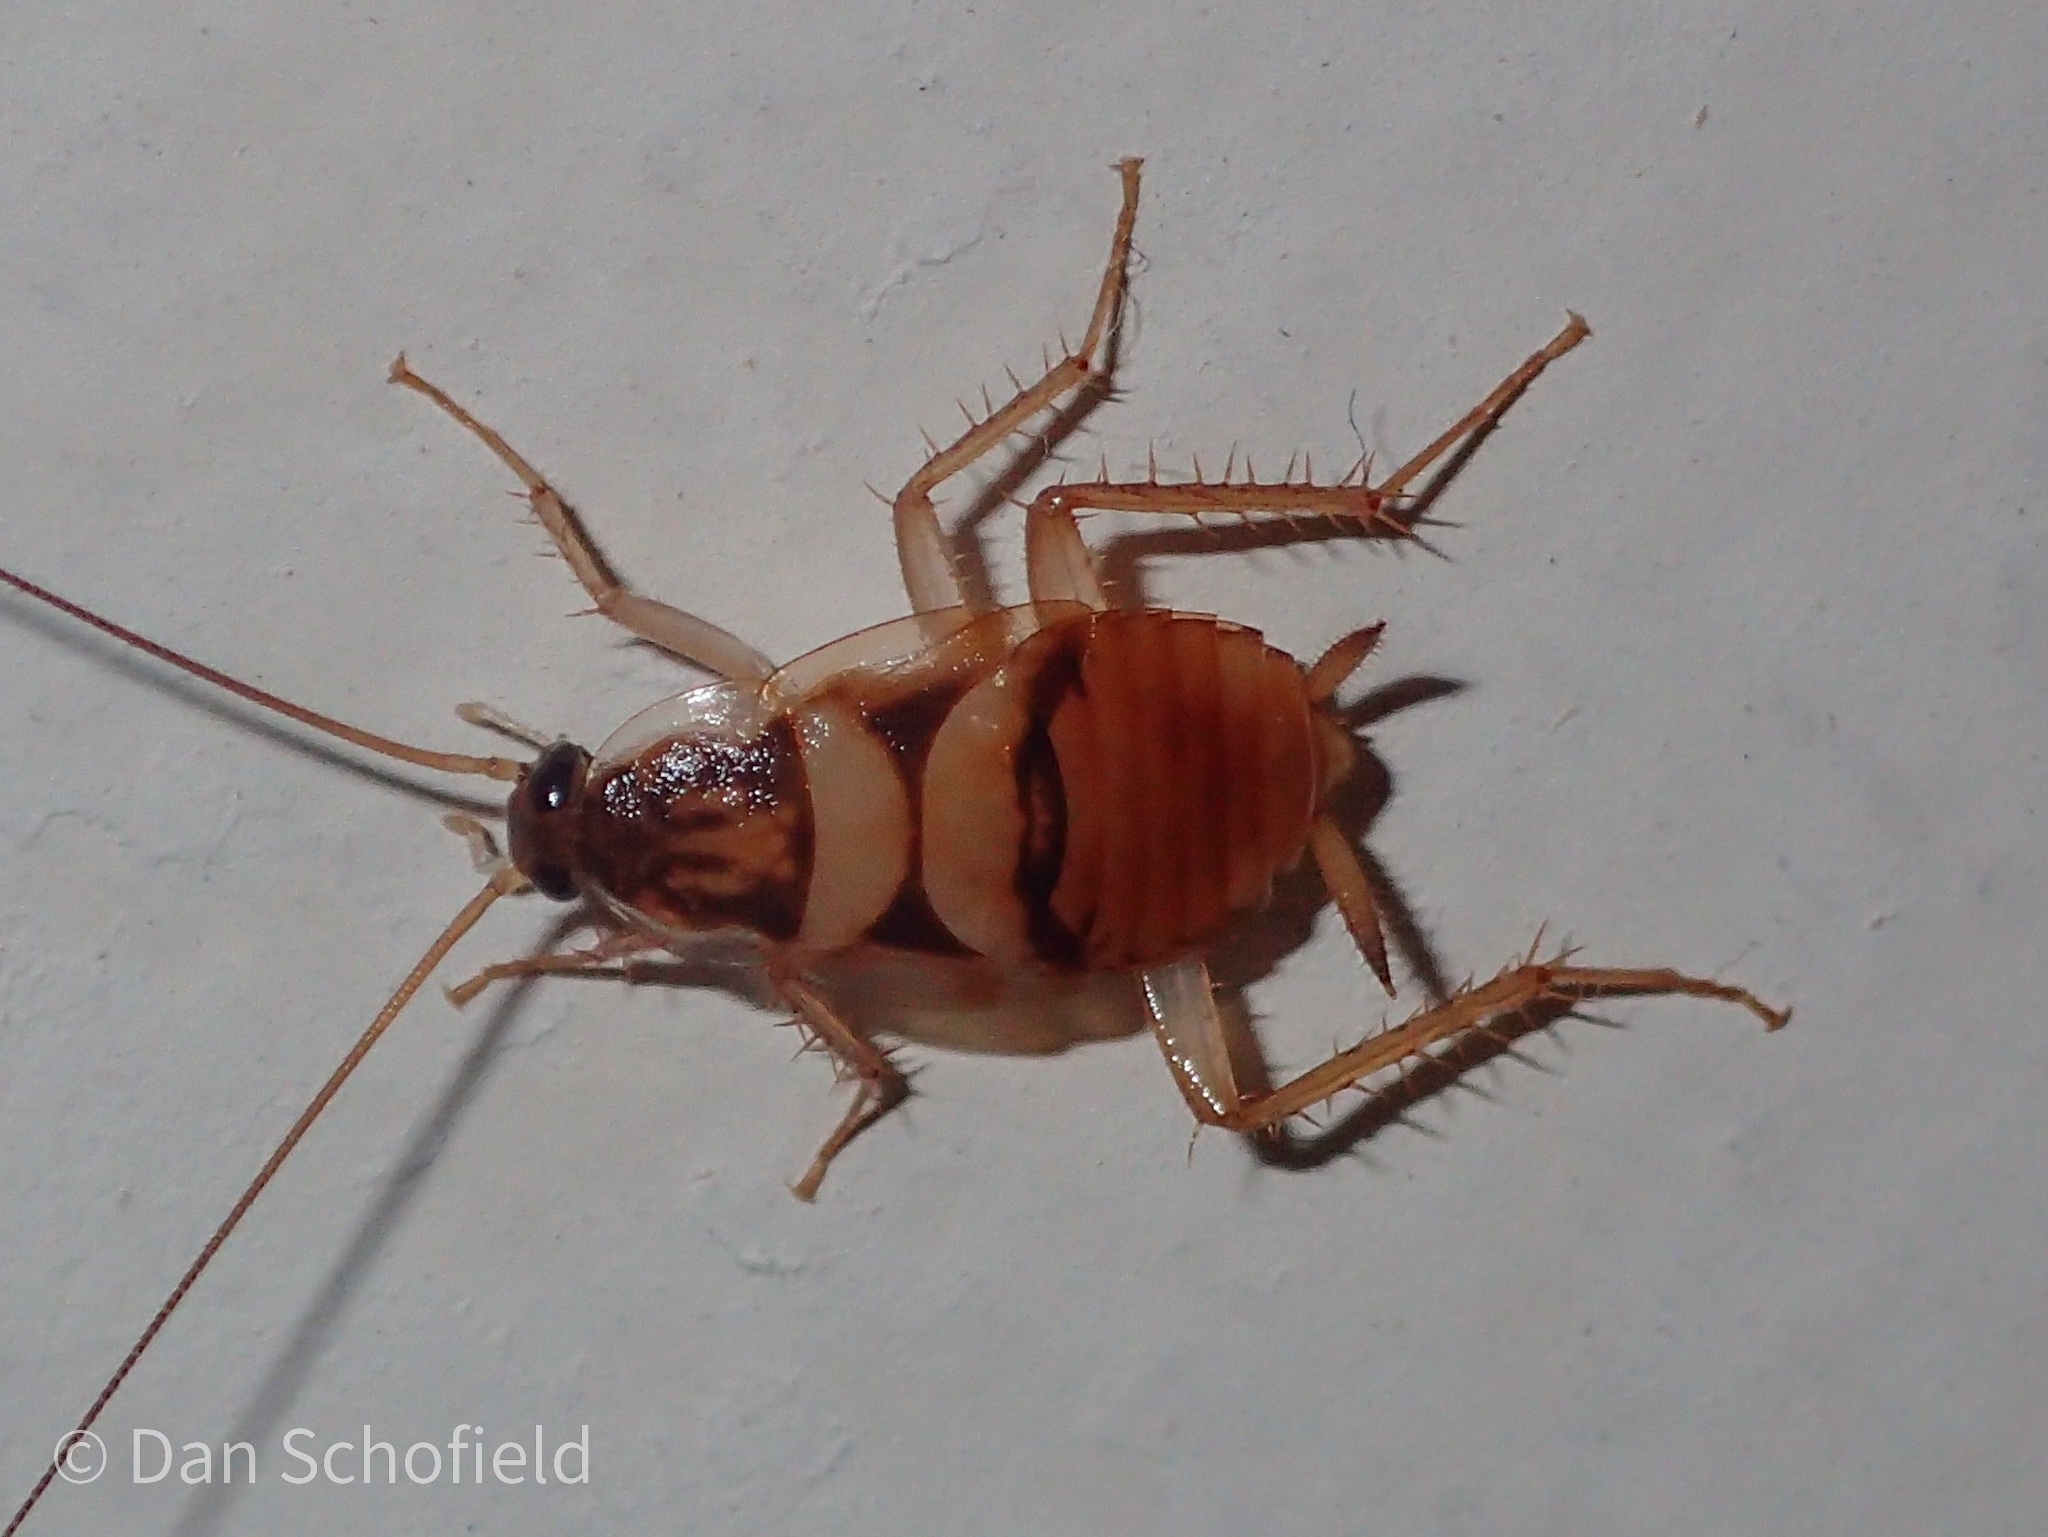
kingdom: Animalia
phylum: Arthropoda
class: Insecta
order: Blattodea
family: Ectobiidae
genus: Supella
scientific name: Supella longipalpa
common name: Brown-banded cockroach
